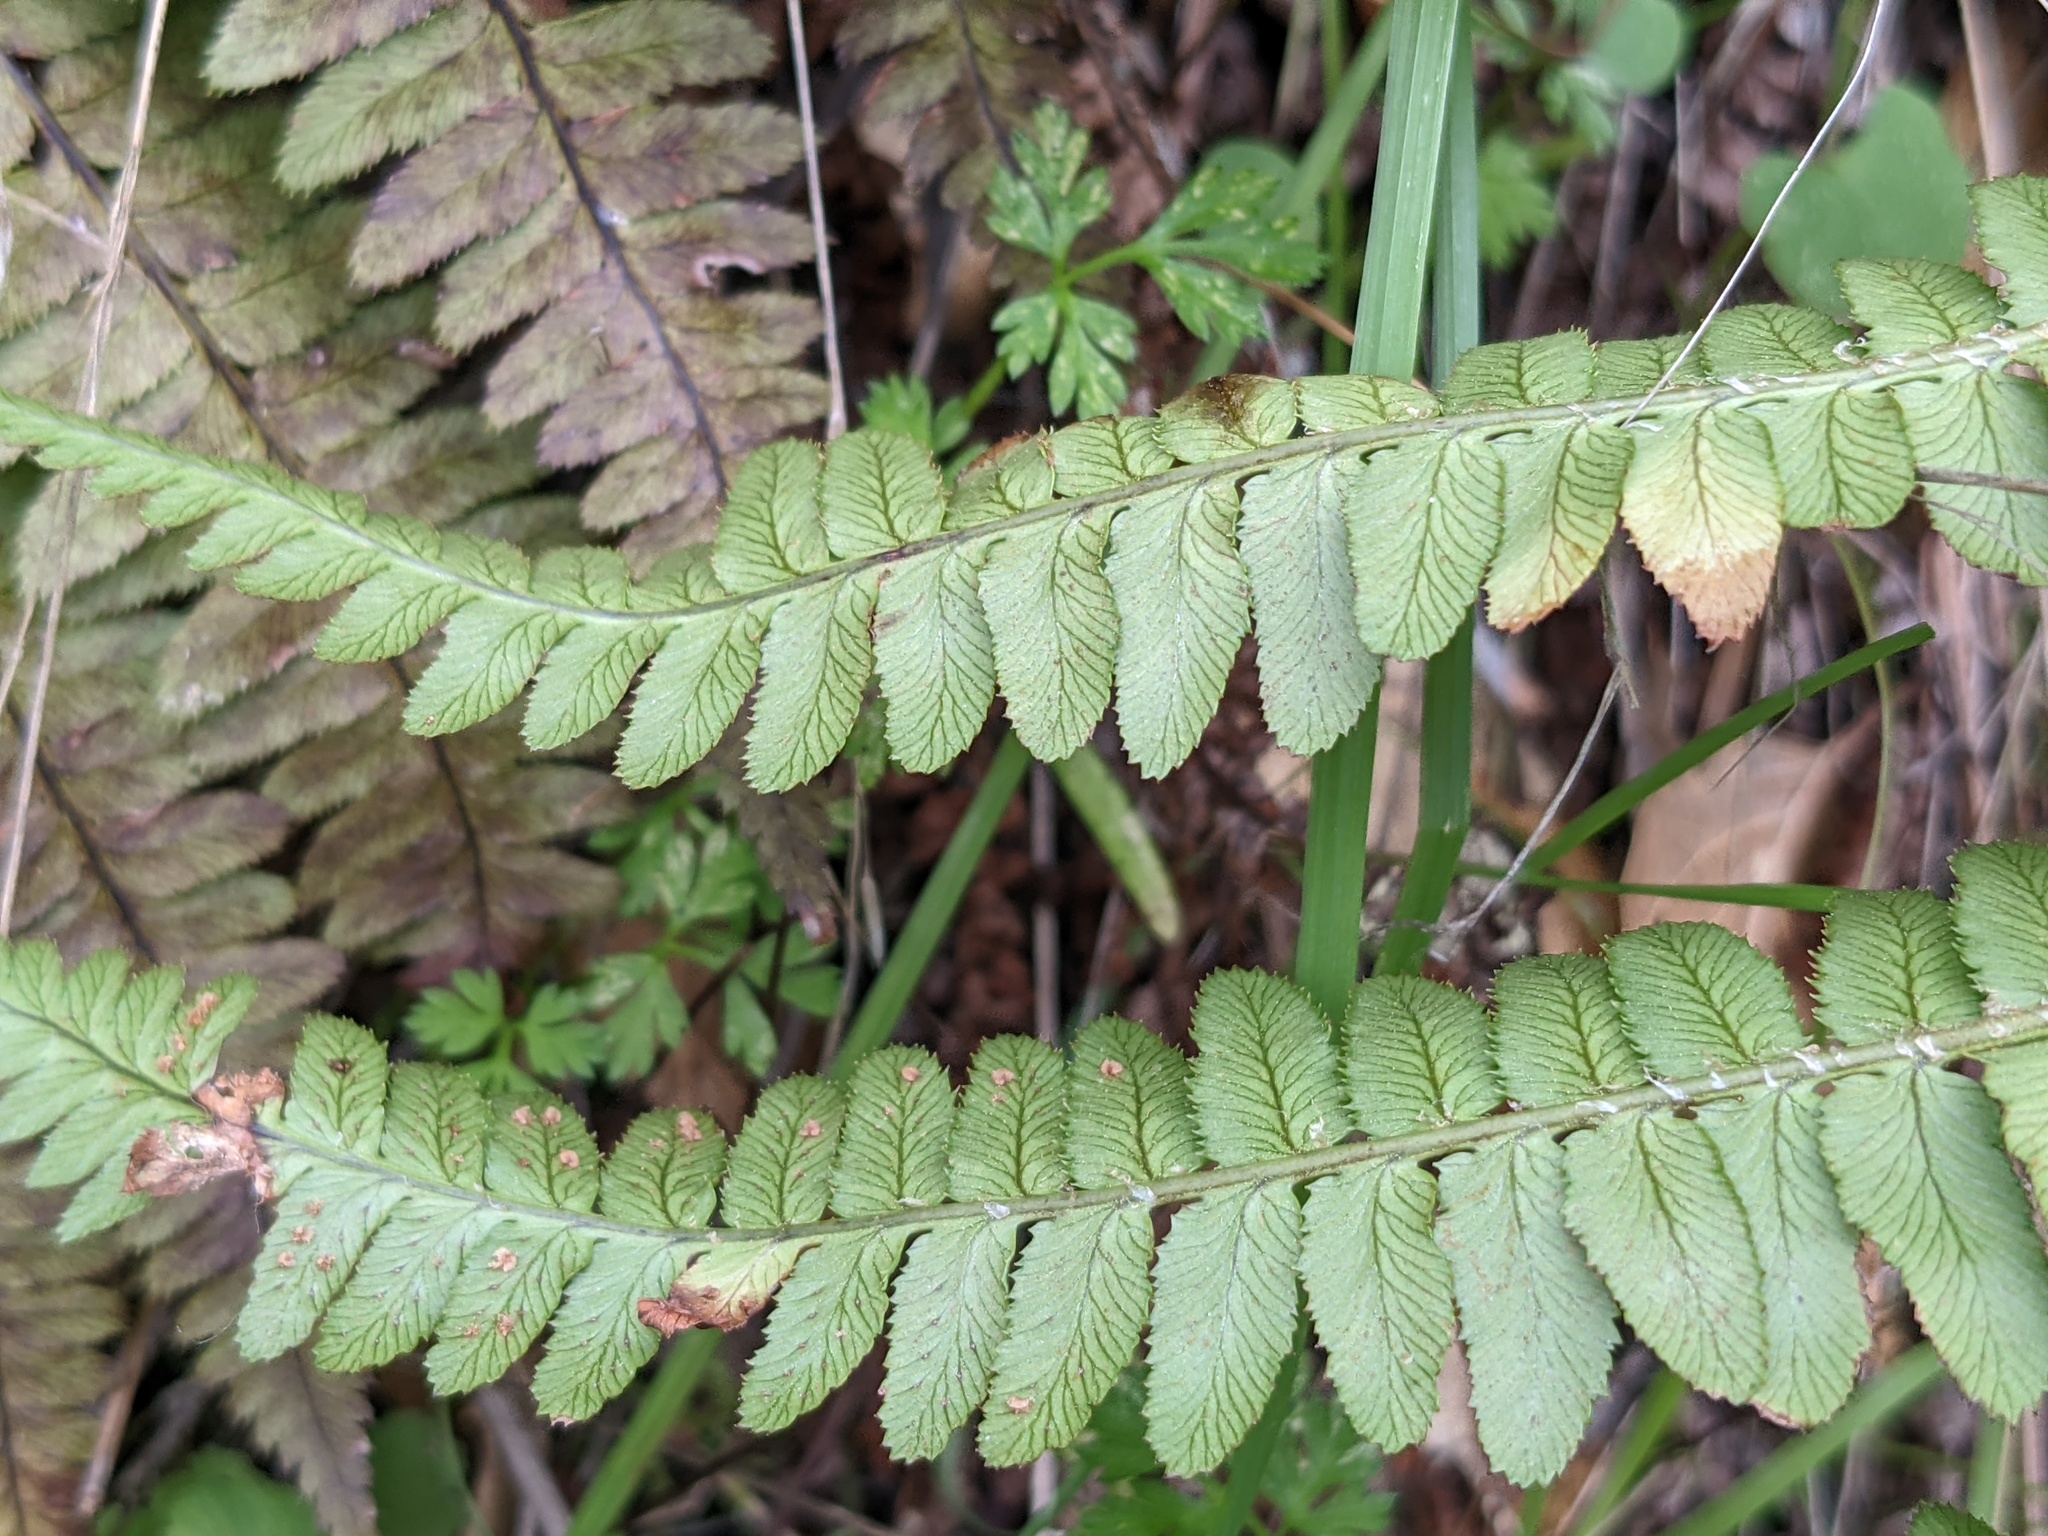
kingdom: Plantae
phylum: Tracheophyta
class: Polypodiopsida
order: Polypodiales
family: Dryopteridaceae
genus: Dryopteris
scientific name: Dryopteris arguta
